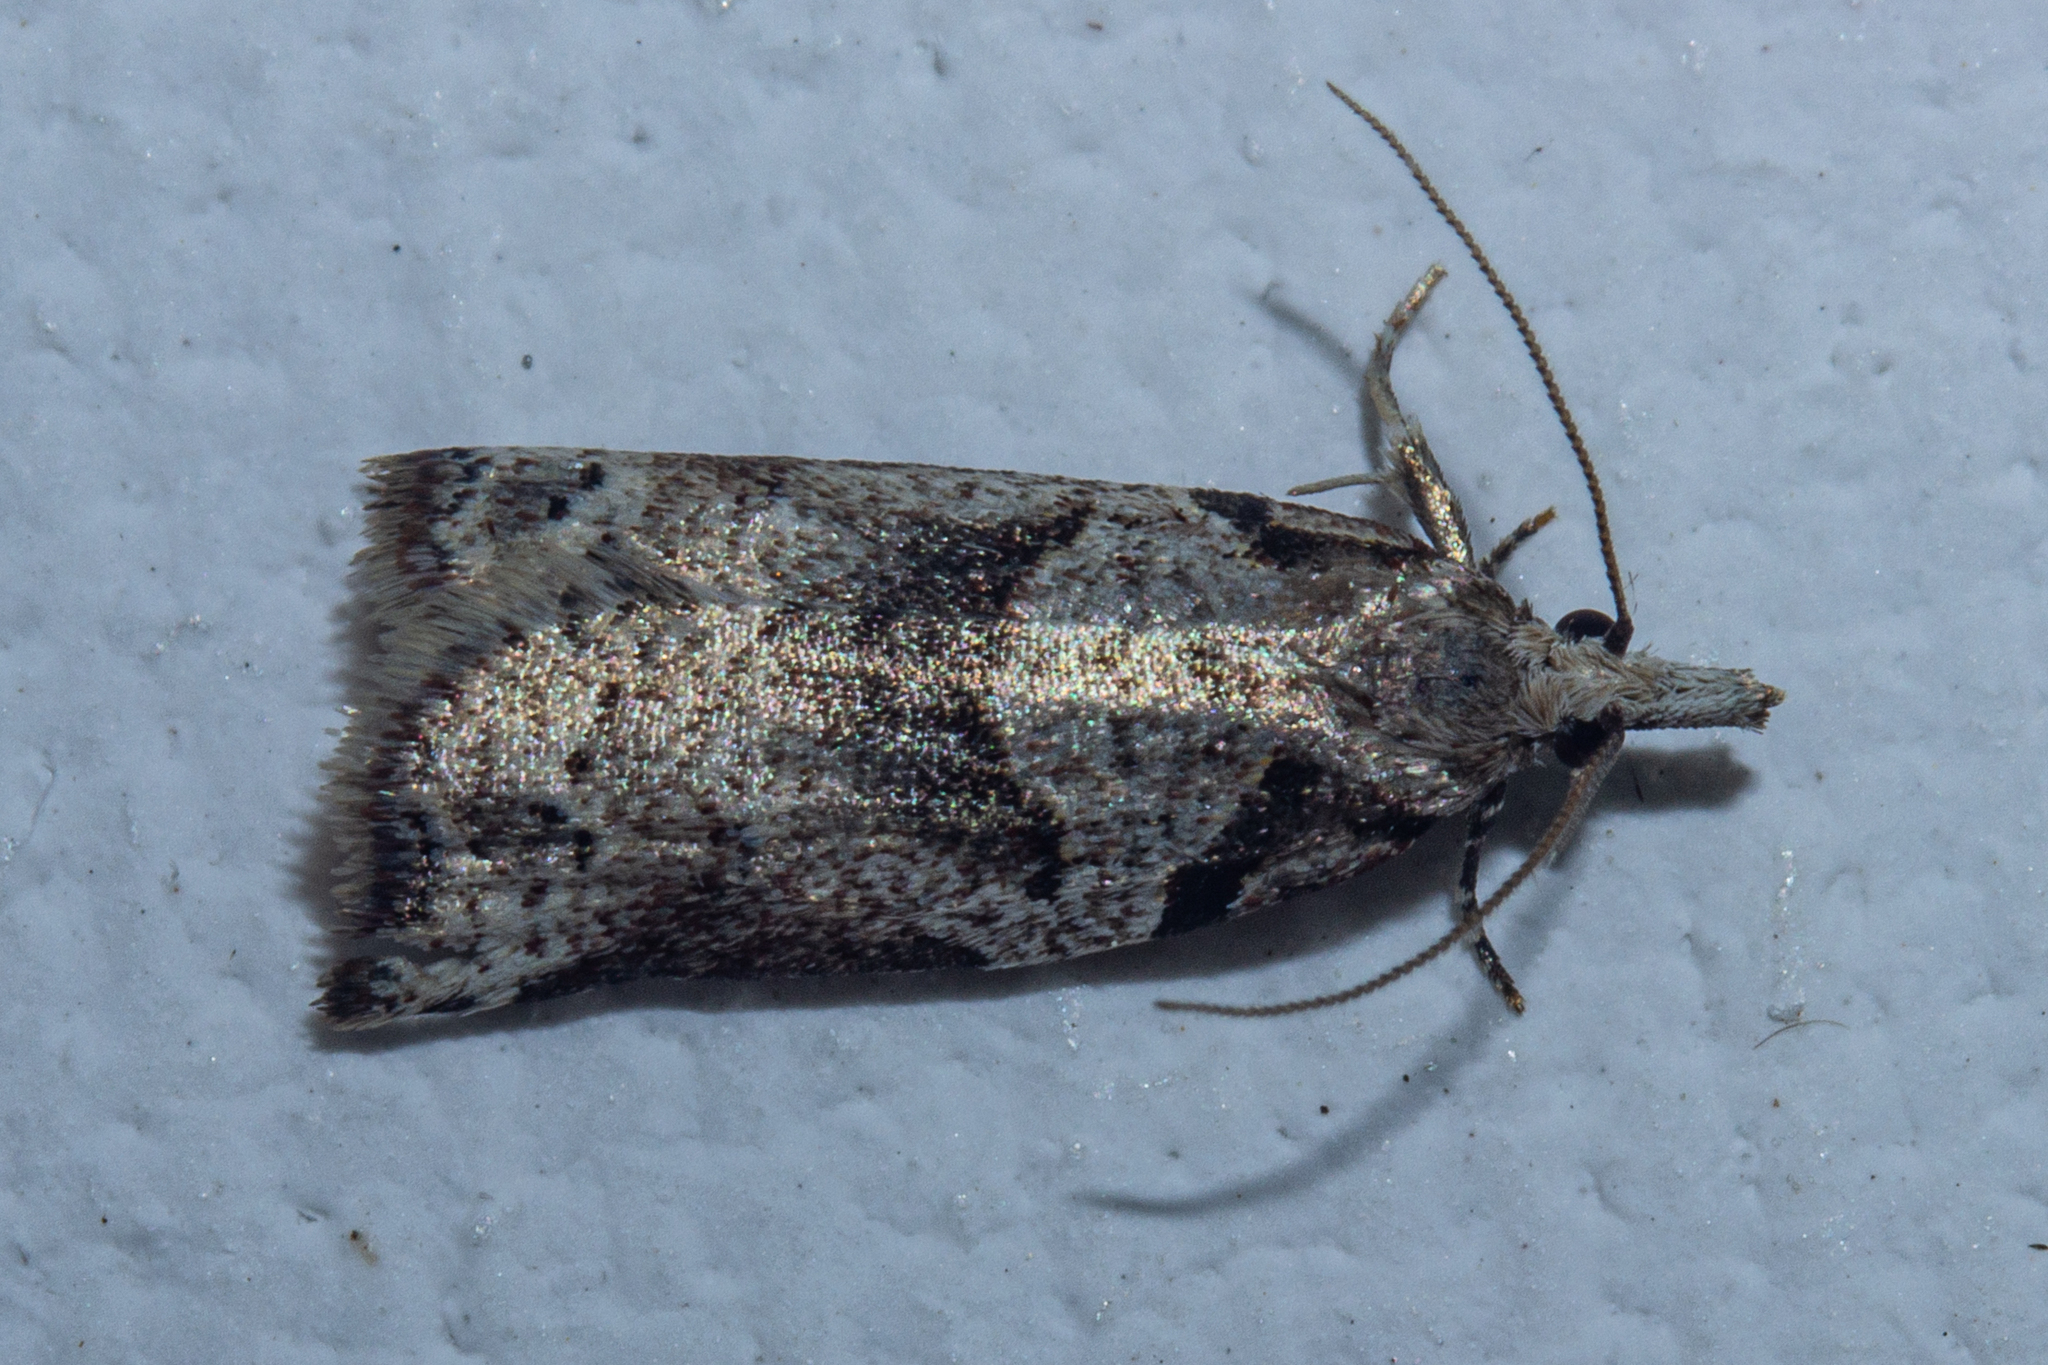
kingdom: Animalia
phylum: Arthropoda
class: Insecta
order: Lepidoptera
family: Tortricidae
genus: Harmologa
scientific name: Harmologa amplexana
